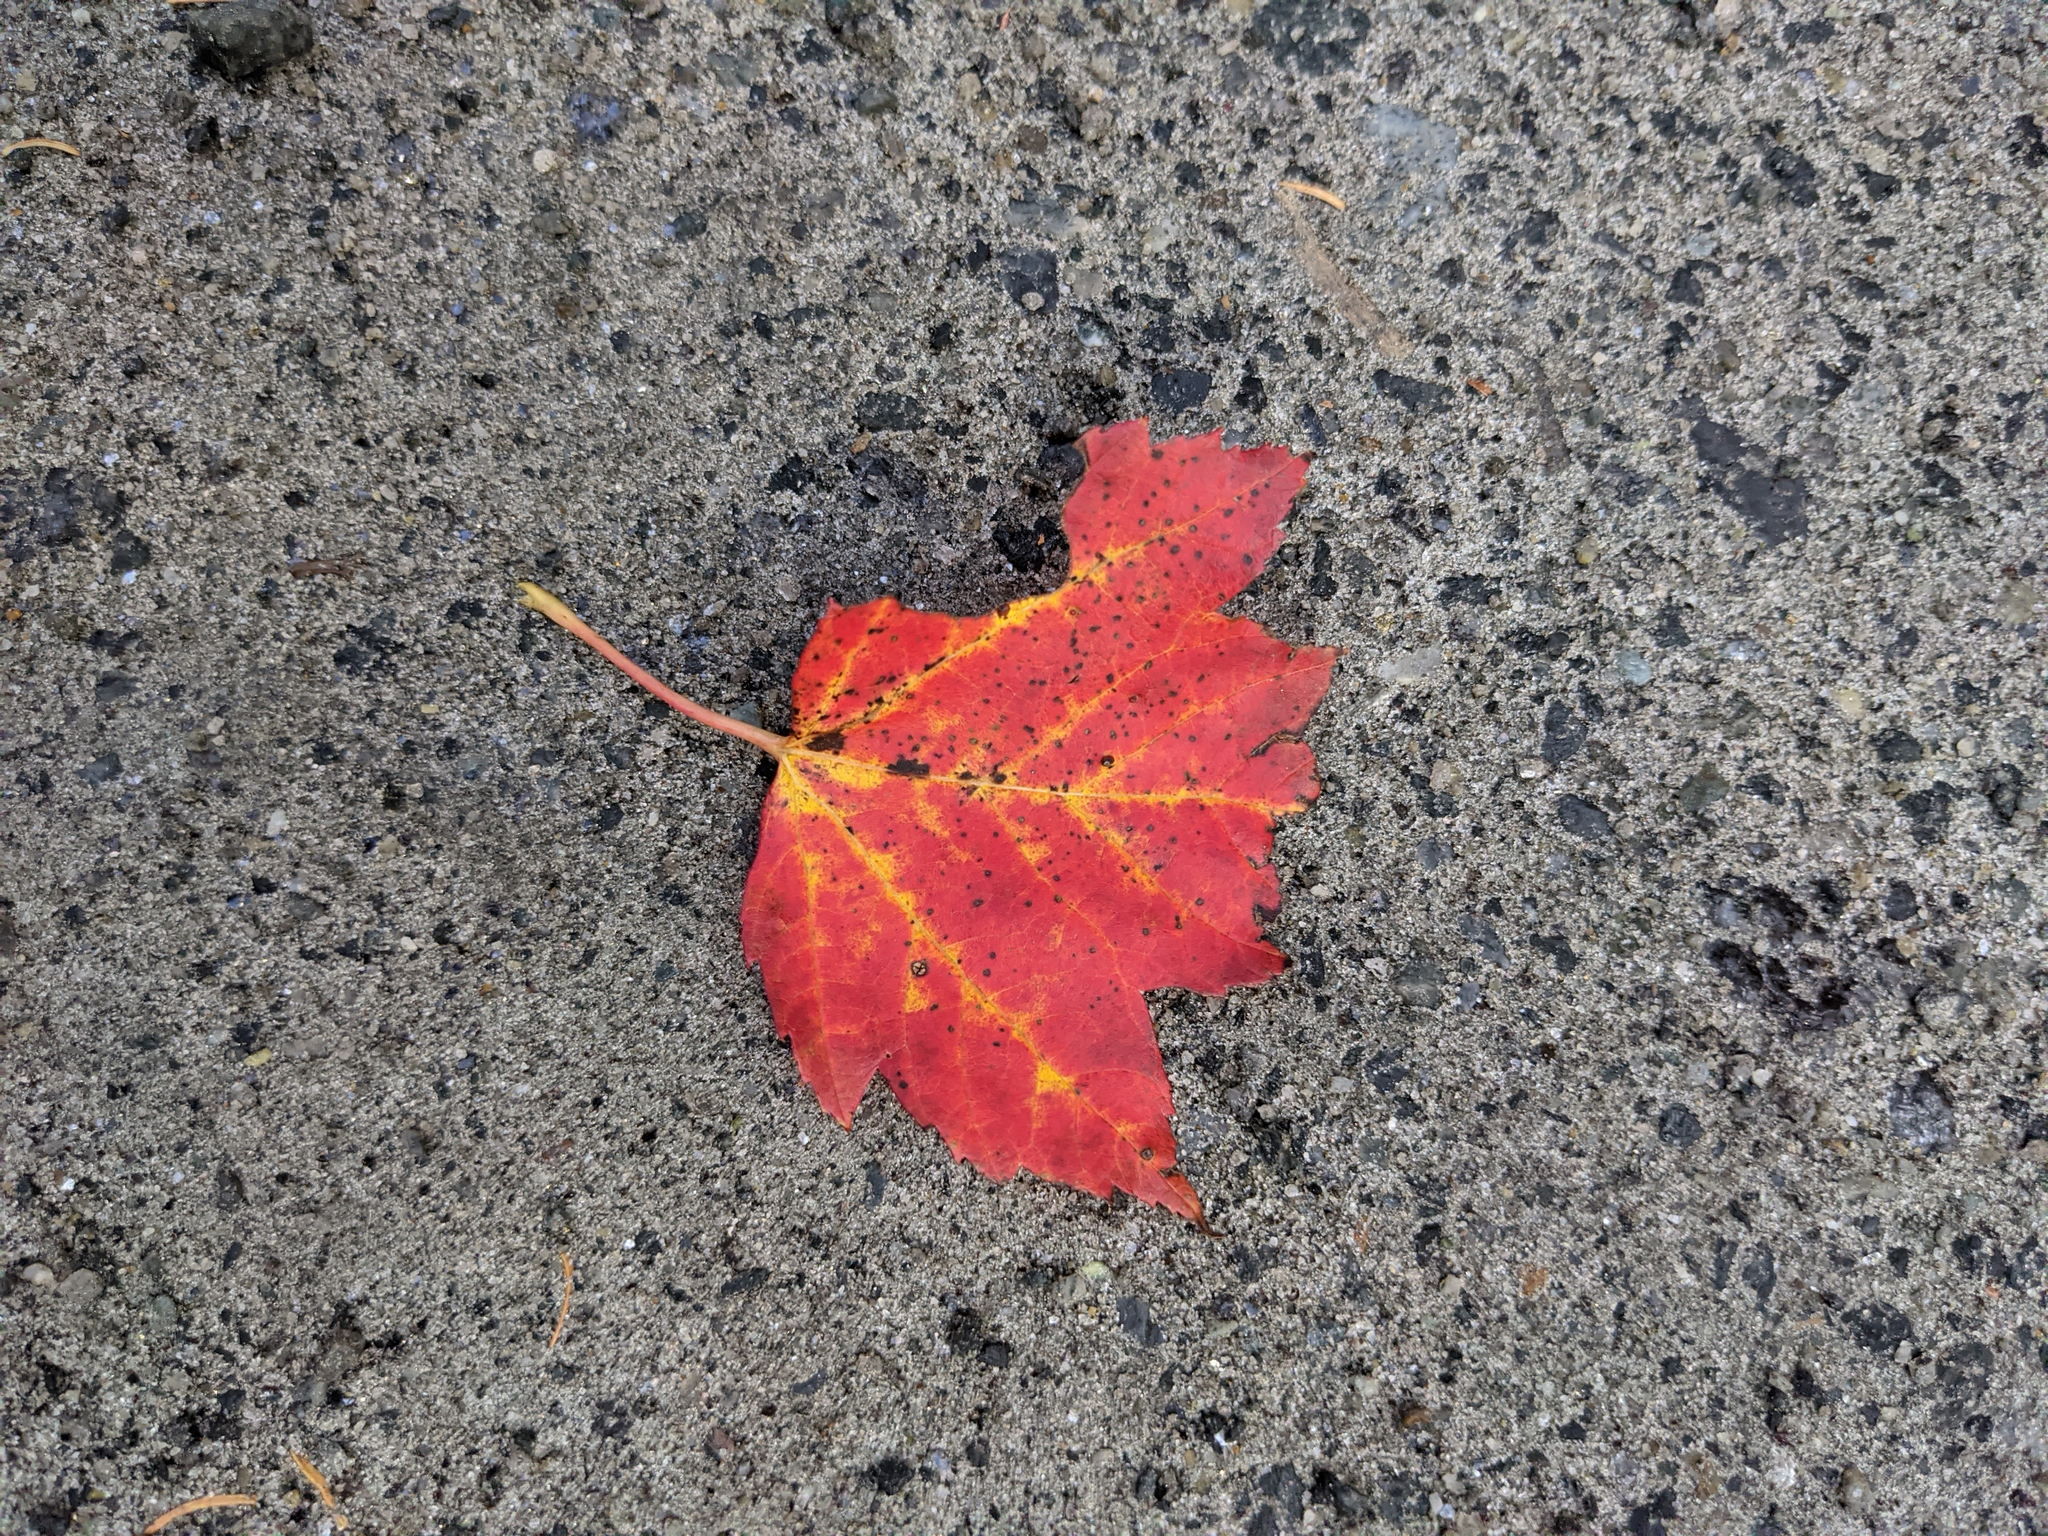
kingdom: Plantae
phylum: Tracheophyta
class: Magnoliopsida
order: Sapindales
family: Sapindaceae
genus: Acer
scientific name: Acer rubrum
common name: Red maple
